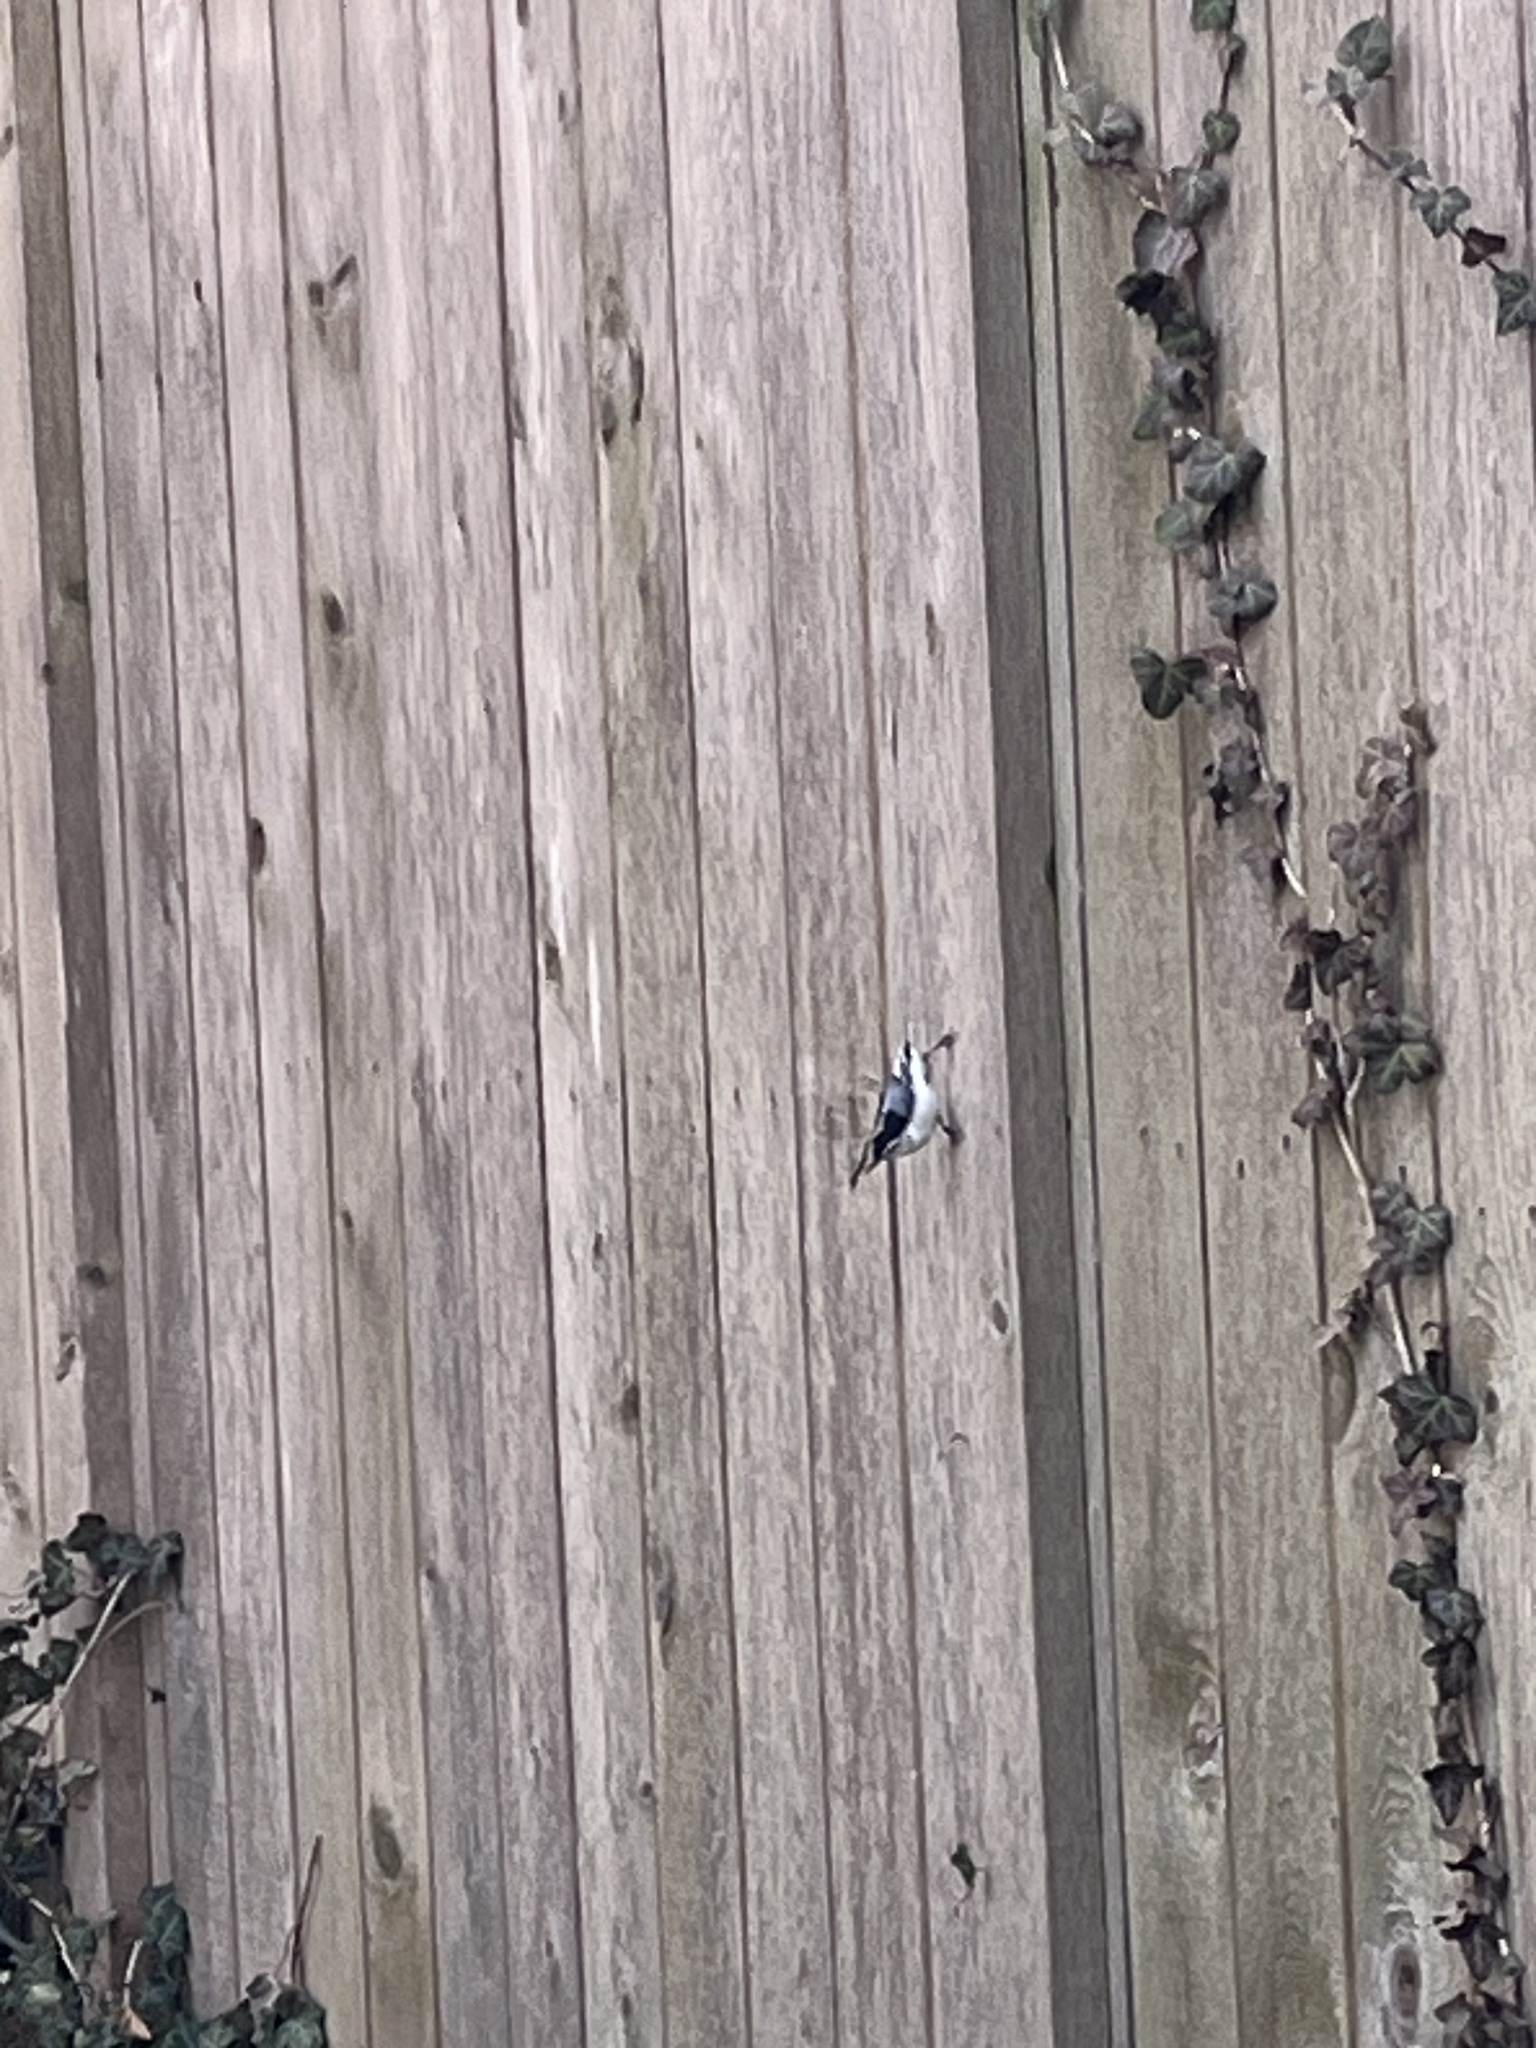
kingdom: Animalia
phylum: Chordata
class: Aves
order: Passeriformes
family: Sittidae
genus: Sitta
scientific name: Sitta carolinensis
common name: White-breasted nuthatch
